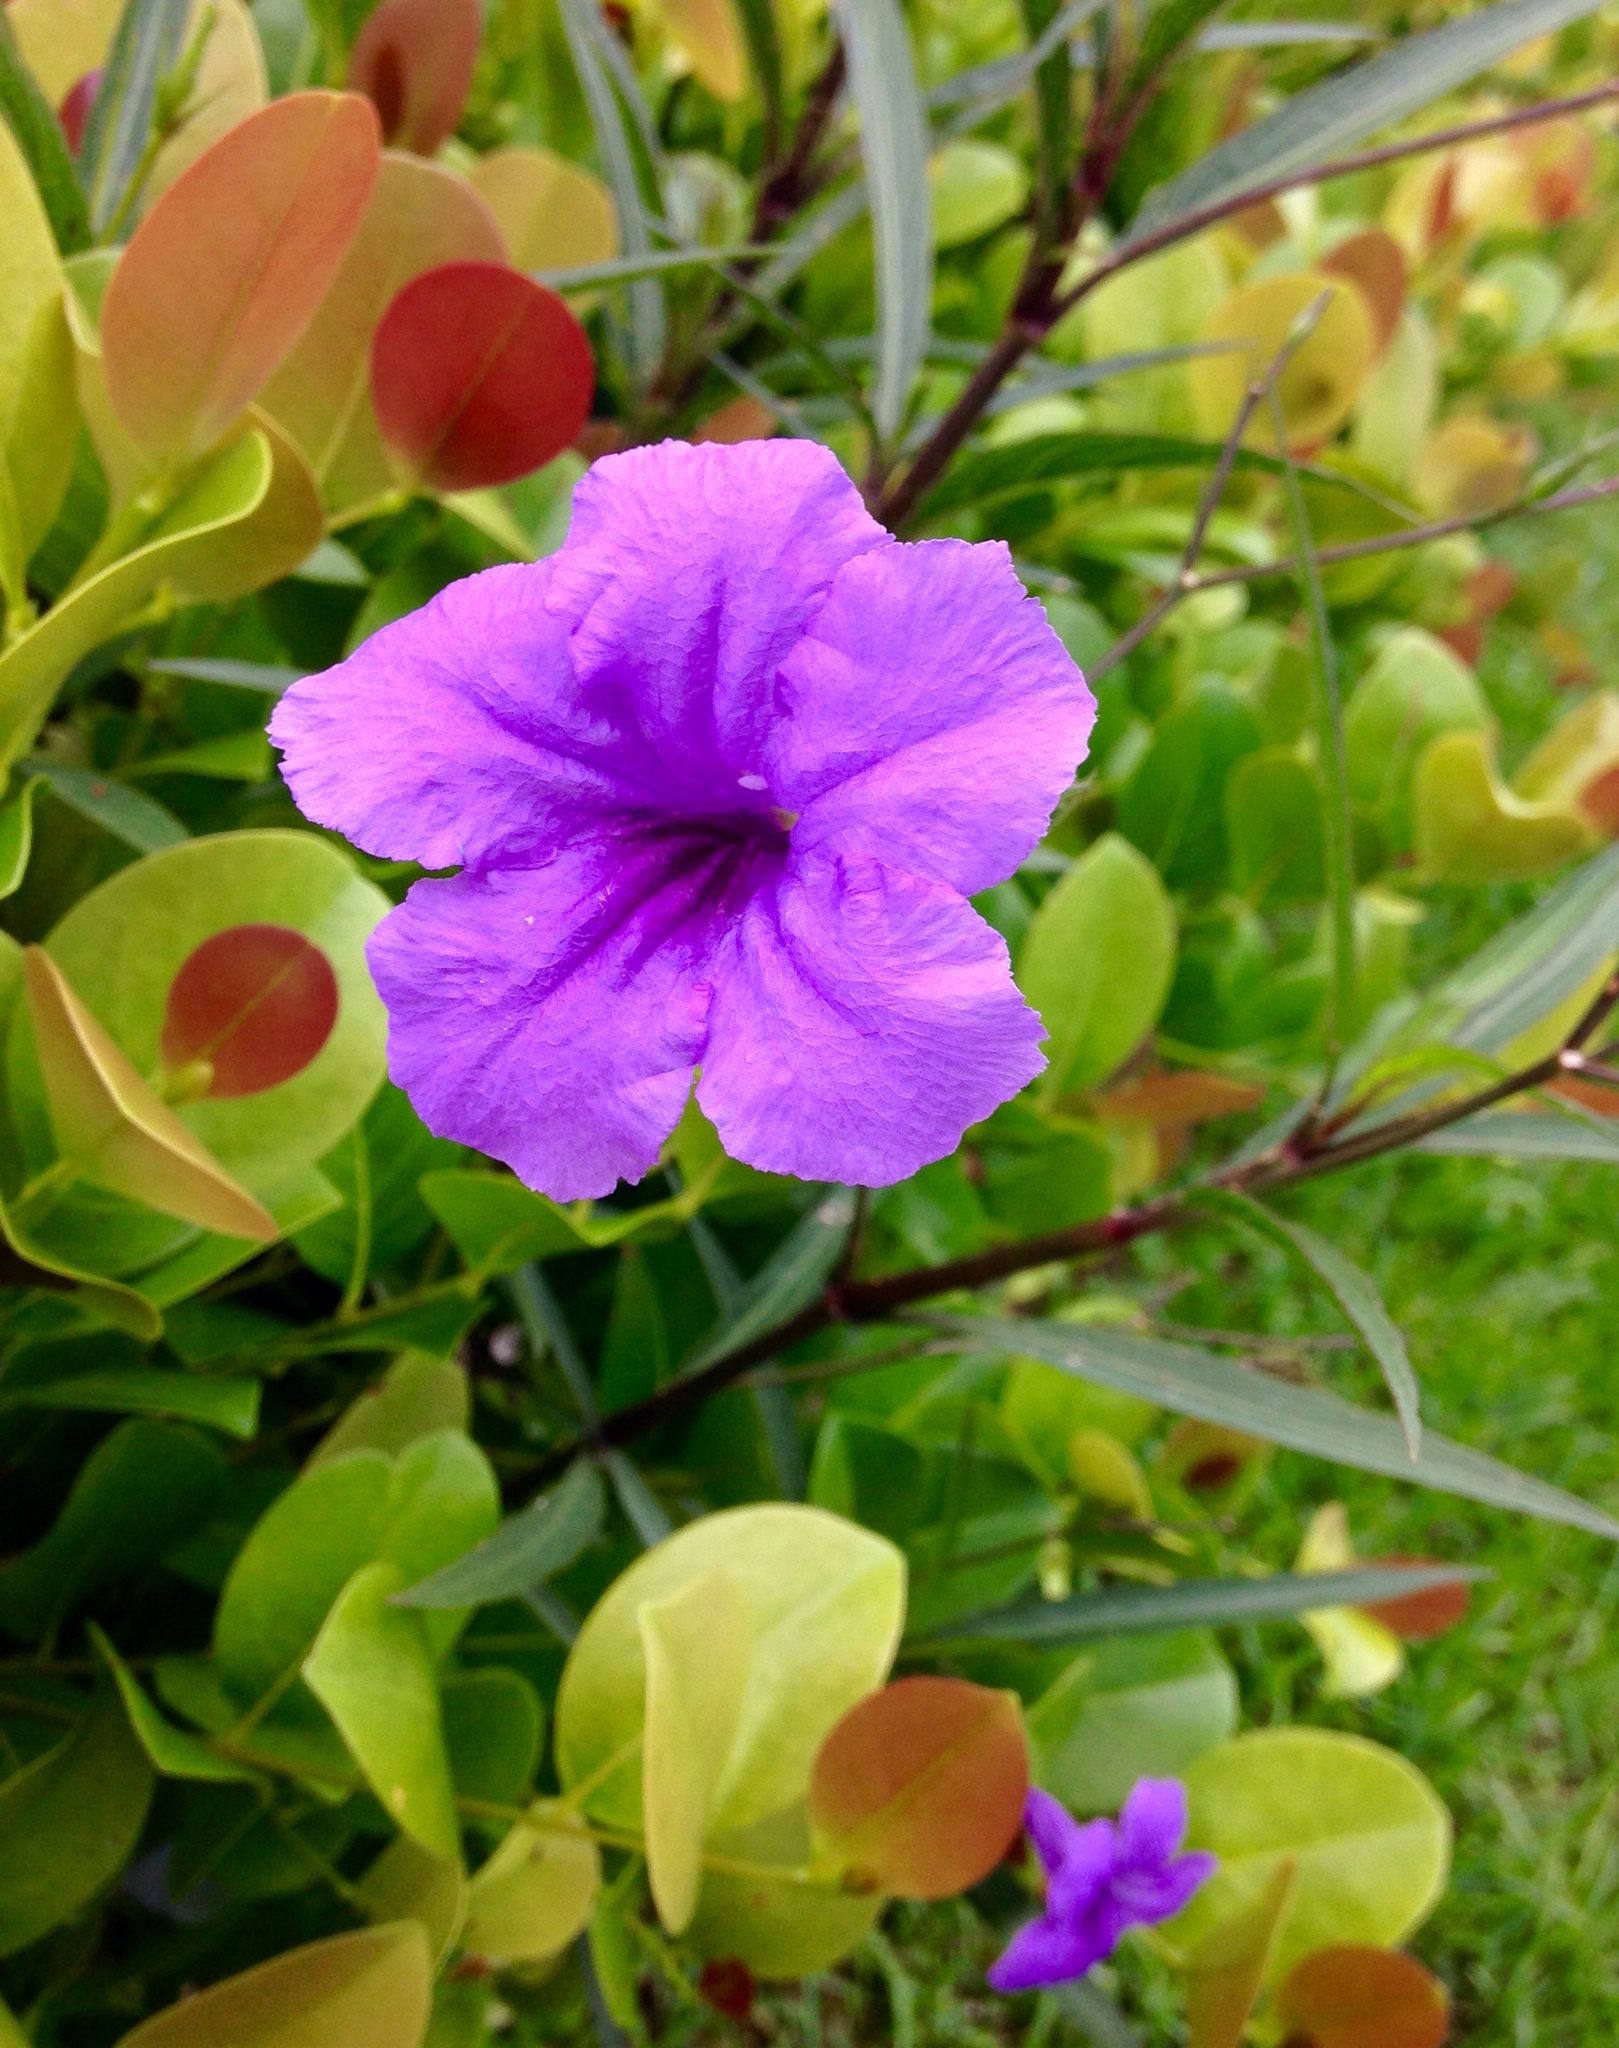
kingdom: Plantae
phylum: Tracheophyta
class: Magnoliopsida
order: Lamiales
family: Acanthaceae
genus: Ruellia
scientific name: Ruellia simplex
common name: Softseed wild petunia
